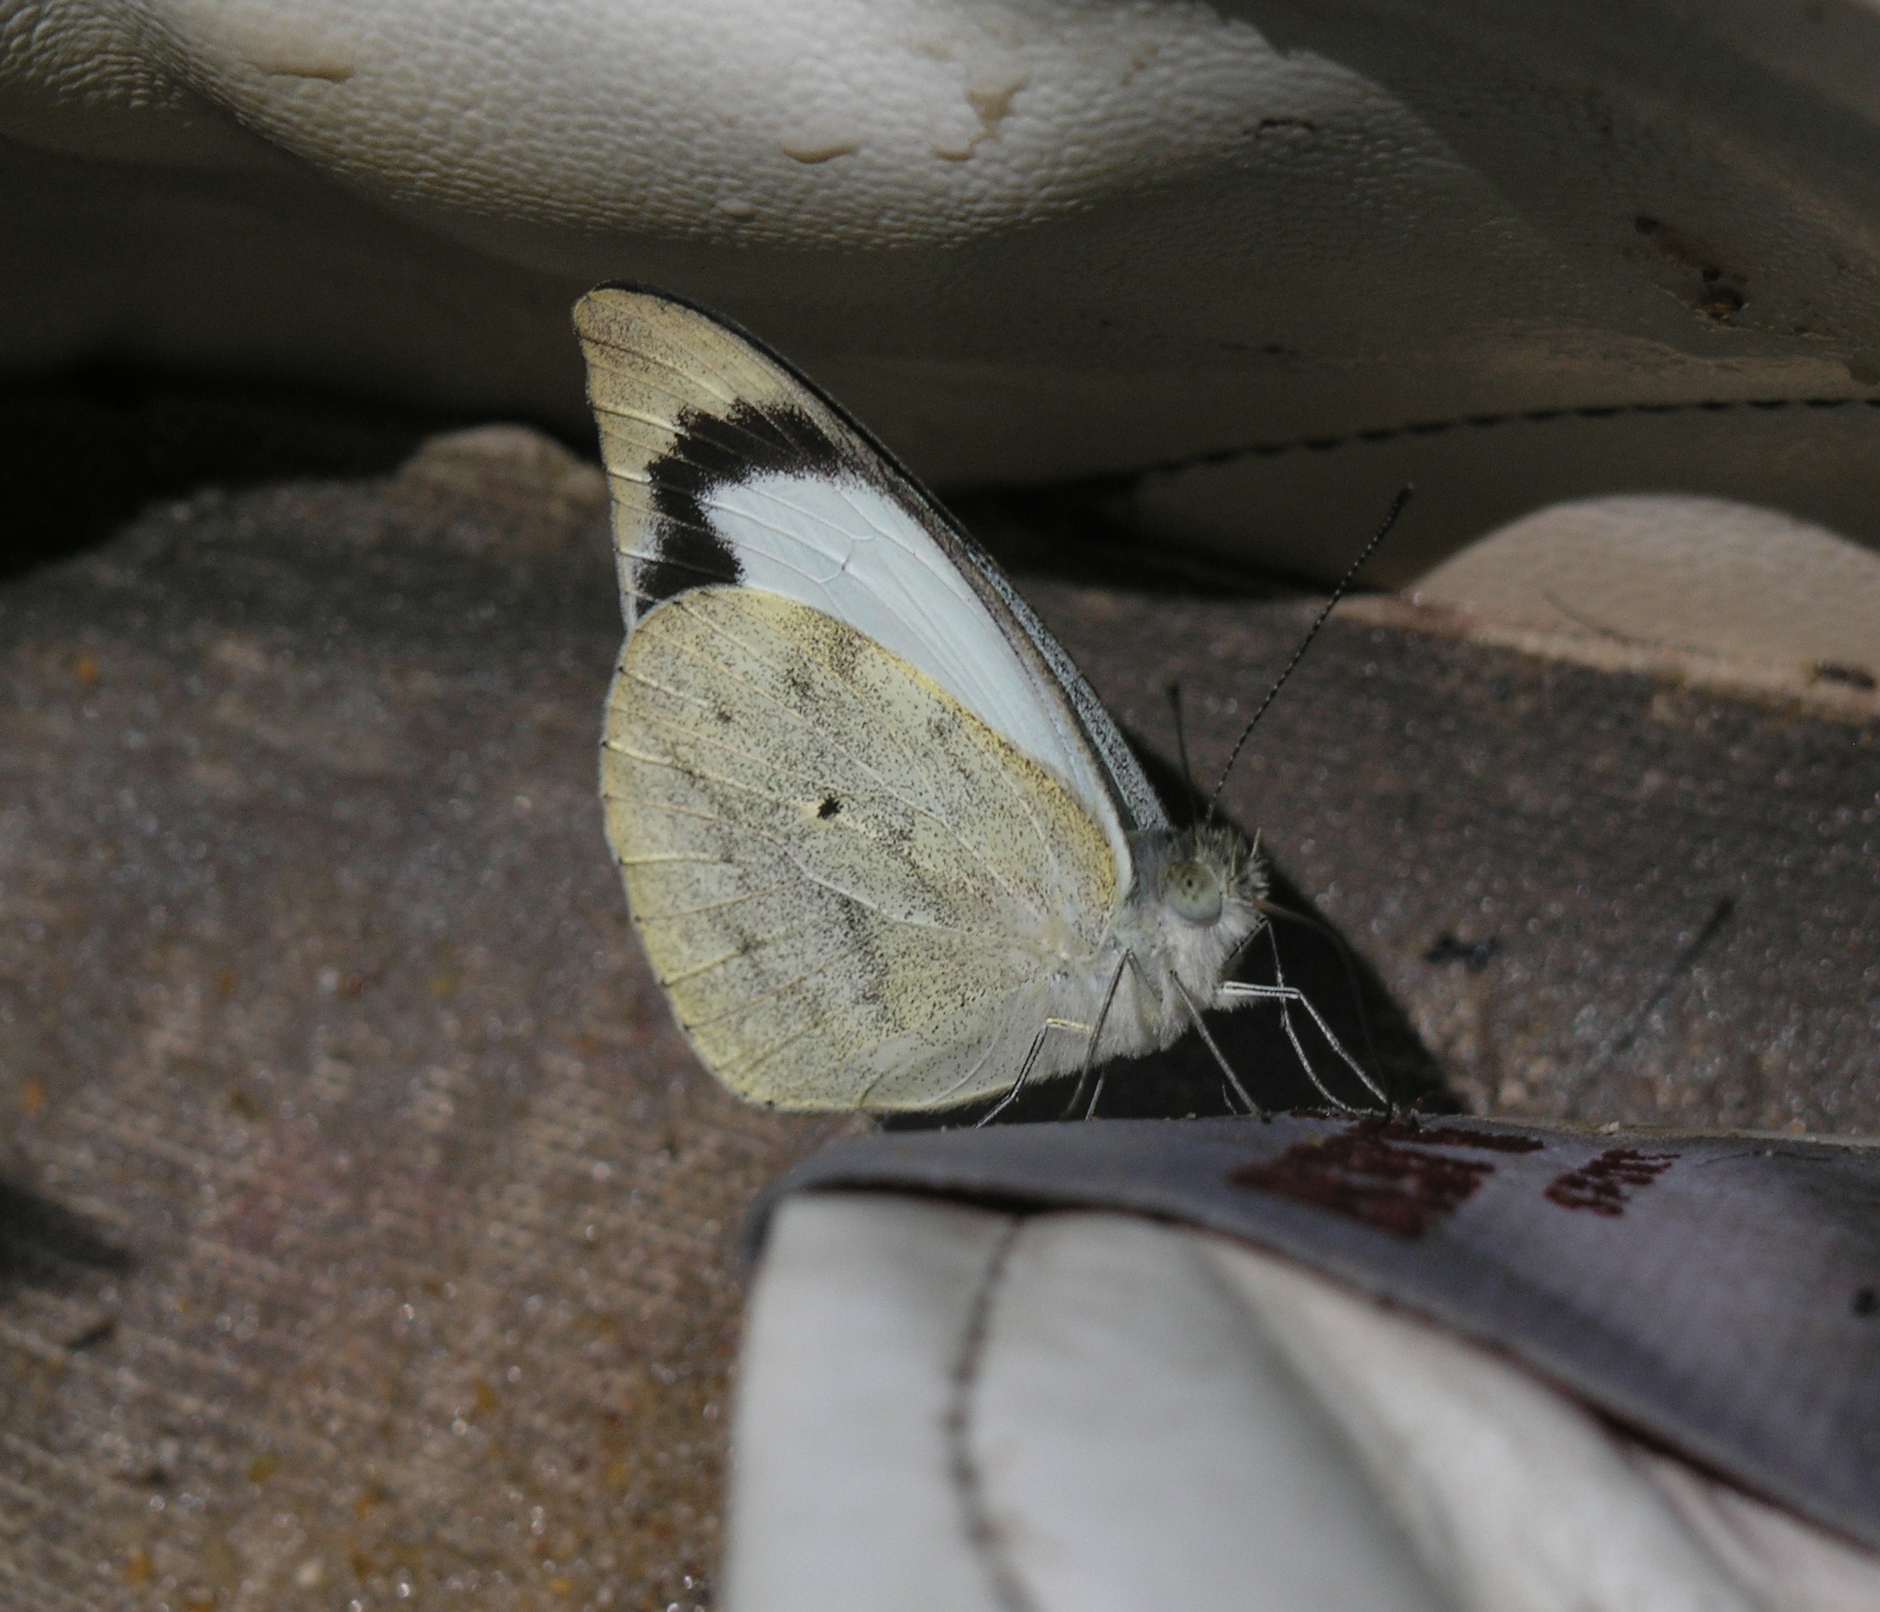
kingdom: Animalia
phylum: Arthropoda
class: Insecta
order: Lepidoptera
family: Pieridae
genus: Appias
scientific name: Appias indra
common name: Plain puffin
